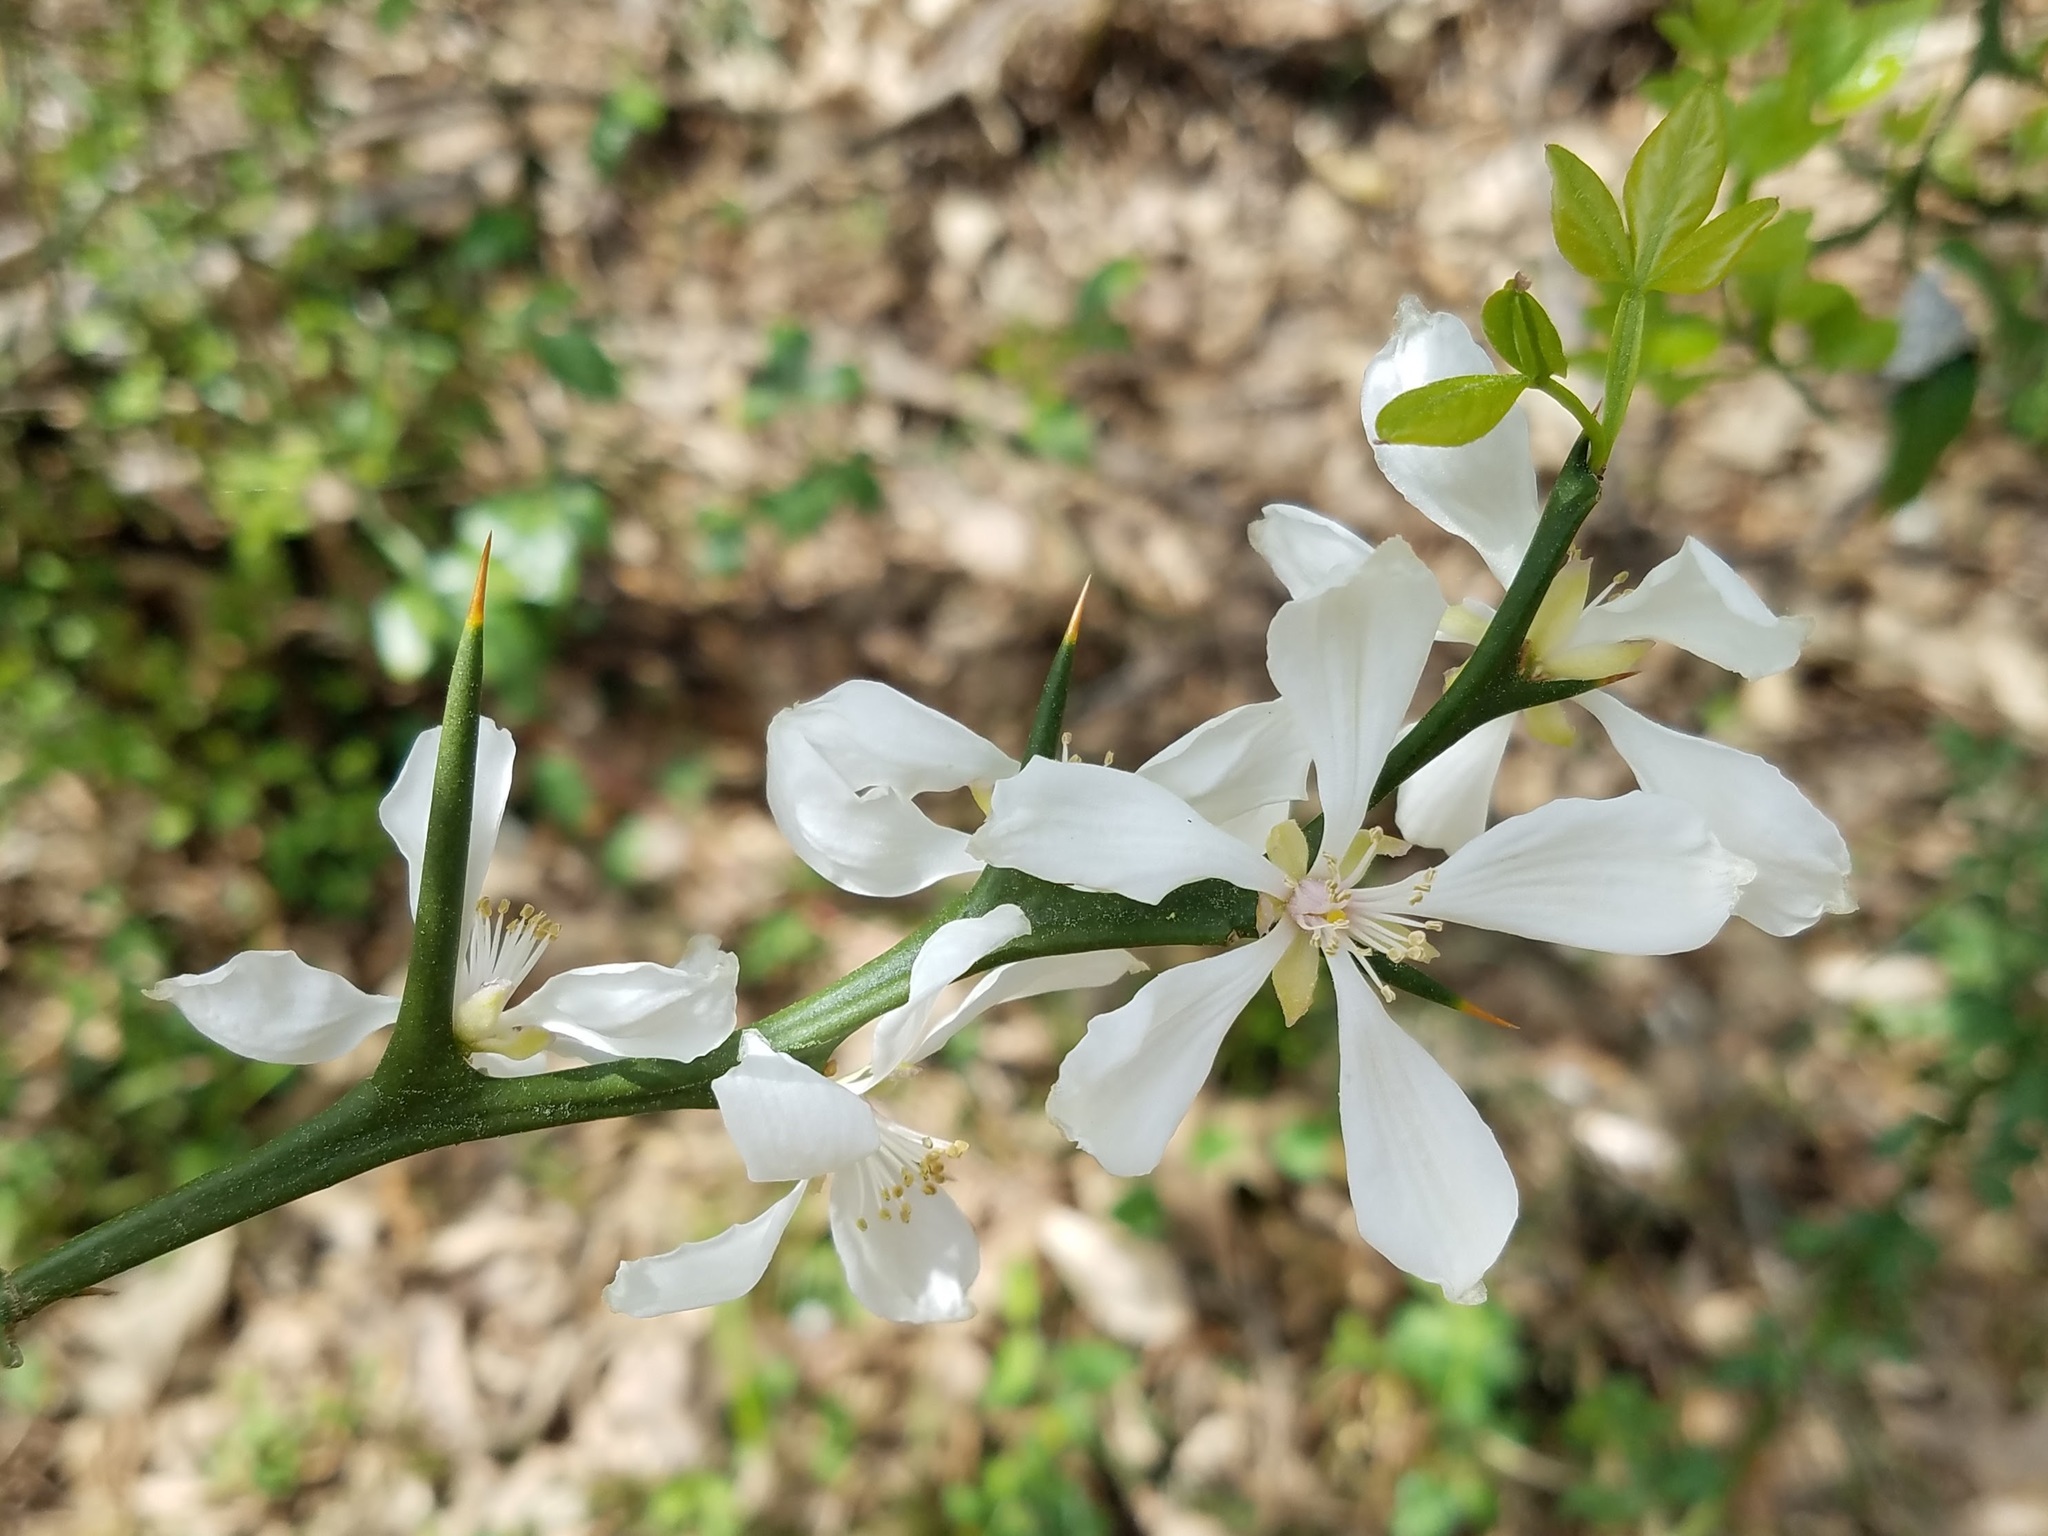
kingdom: Plantae
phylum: Tracheophyta
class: Magnoliopsida
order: Sapindales
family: Rutaceae
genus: Citrus
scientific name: Citrus trifoliata
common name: Japanese bitter-orange
